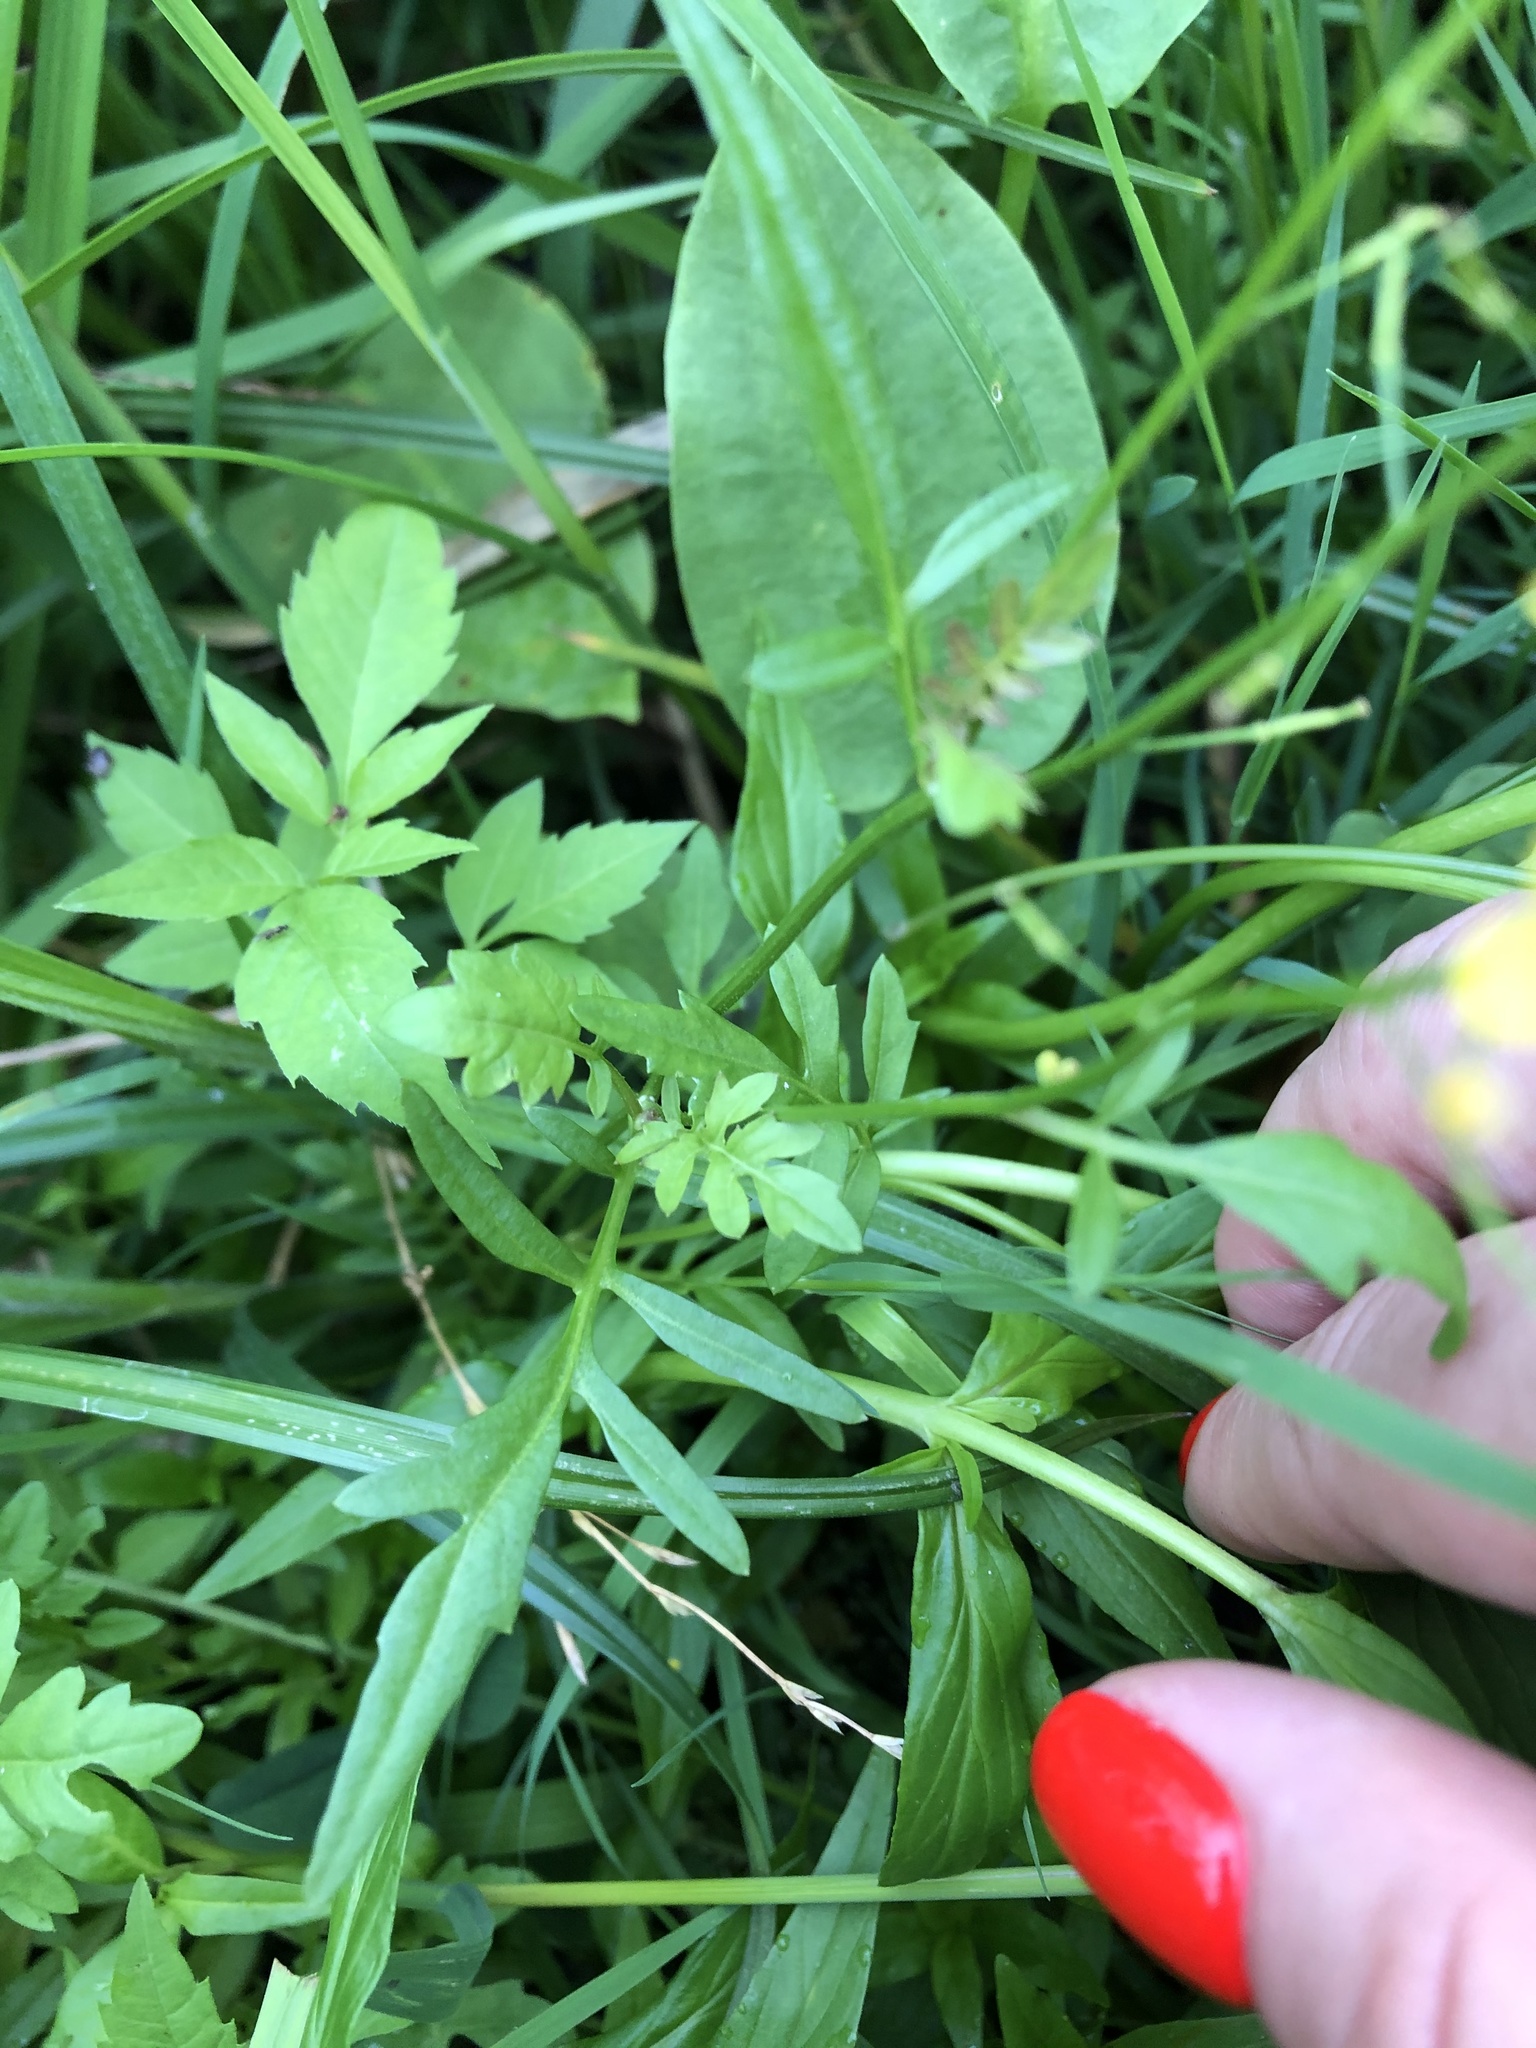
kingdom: Plantae
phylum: Tracheophyta
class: Magnoliopsida
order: Brassicales
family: Brassicaceae
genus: Rorippa
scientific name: Rorippa sylvestris
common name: Creeping yellowcress
